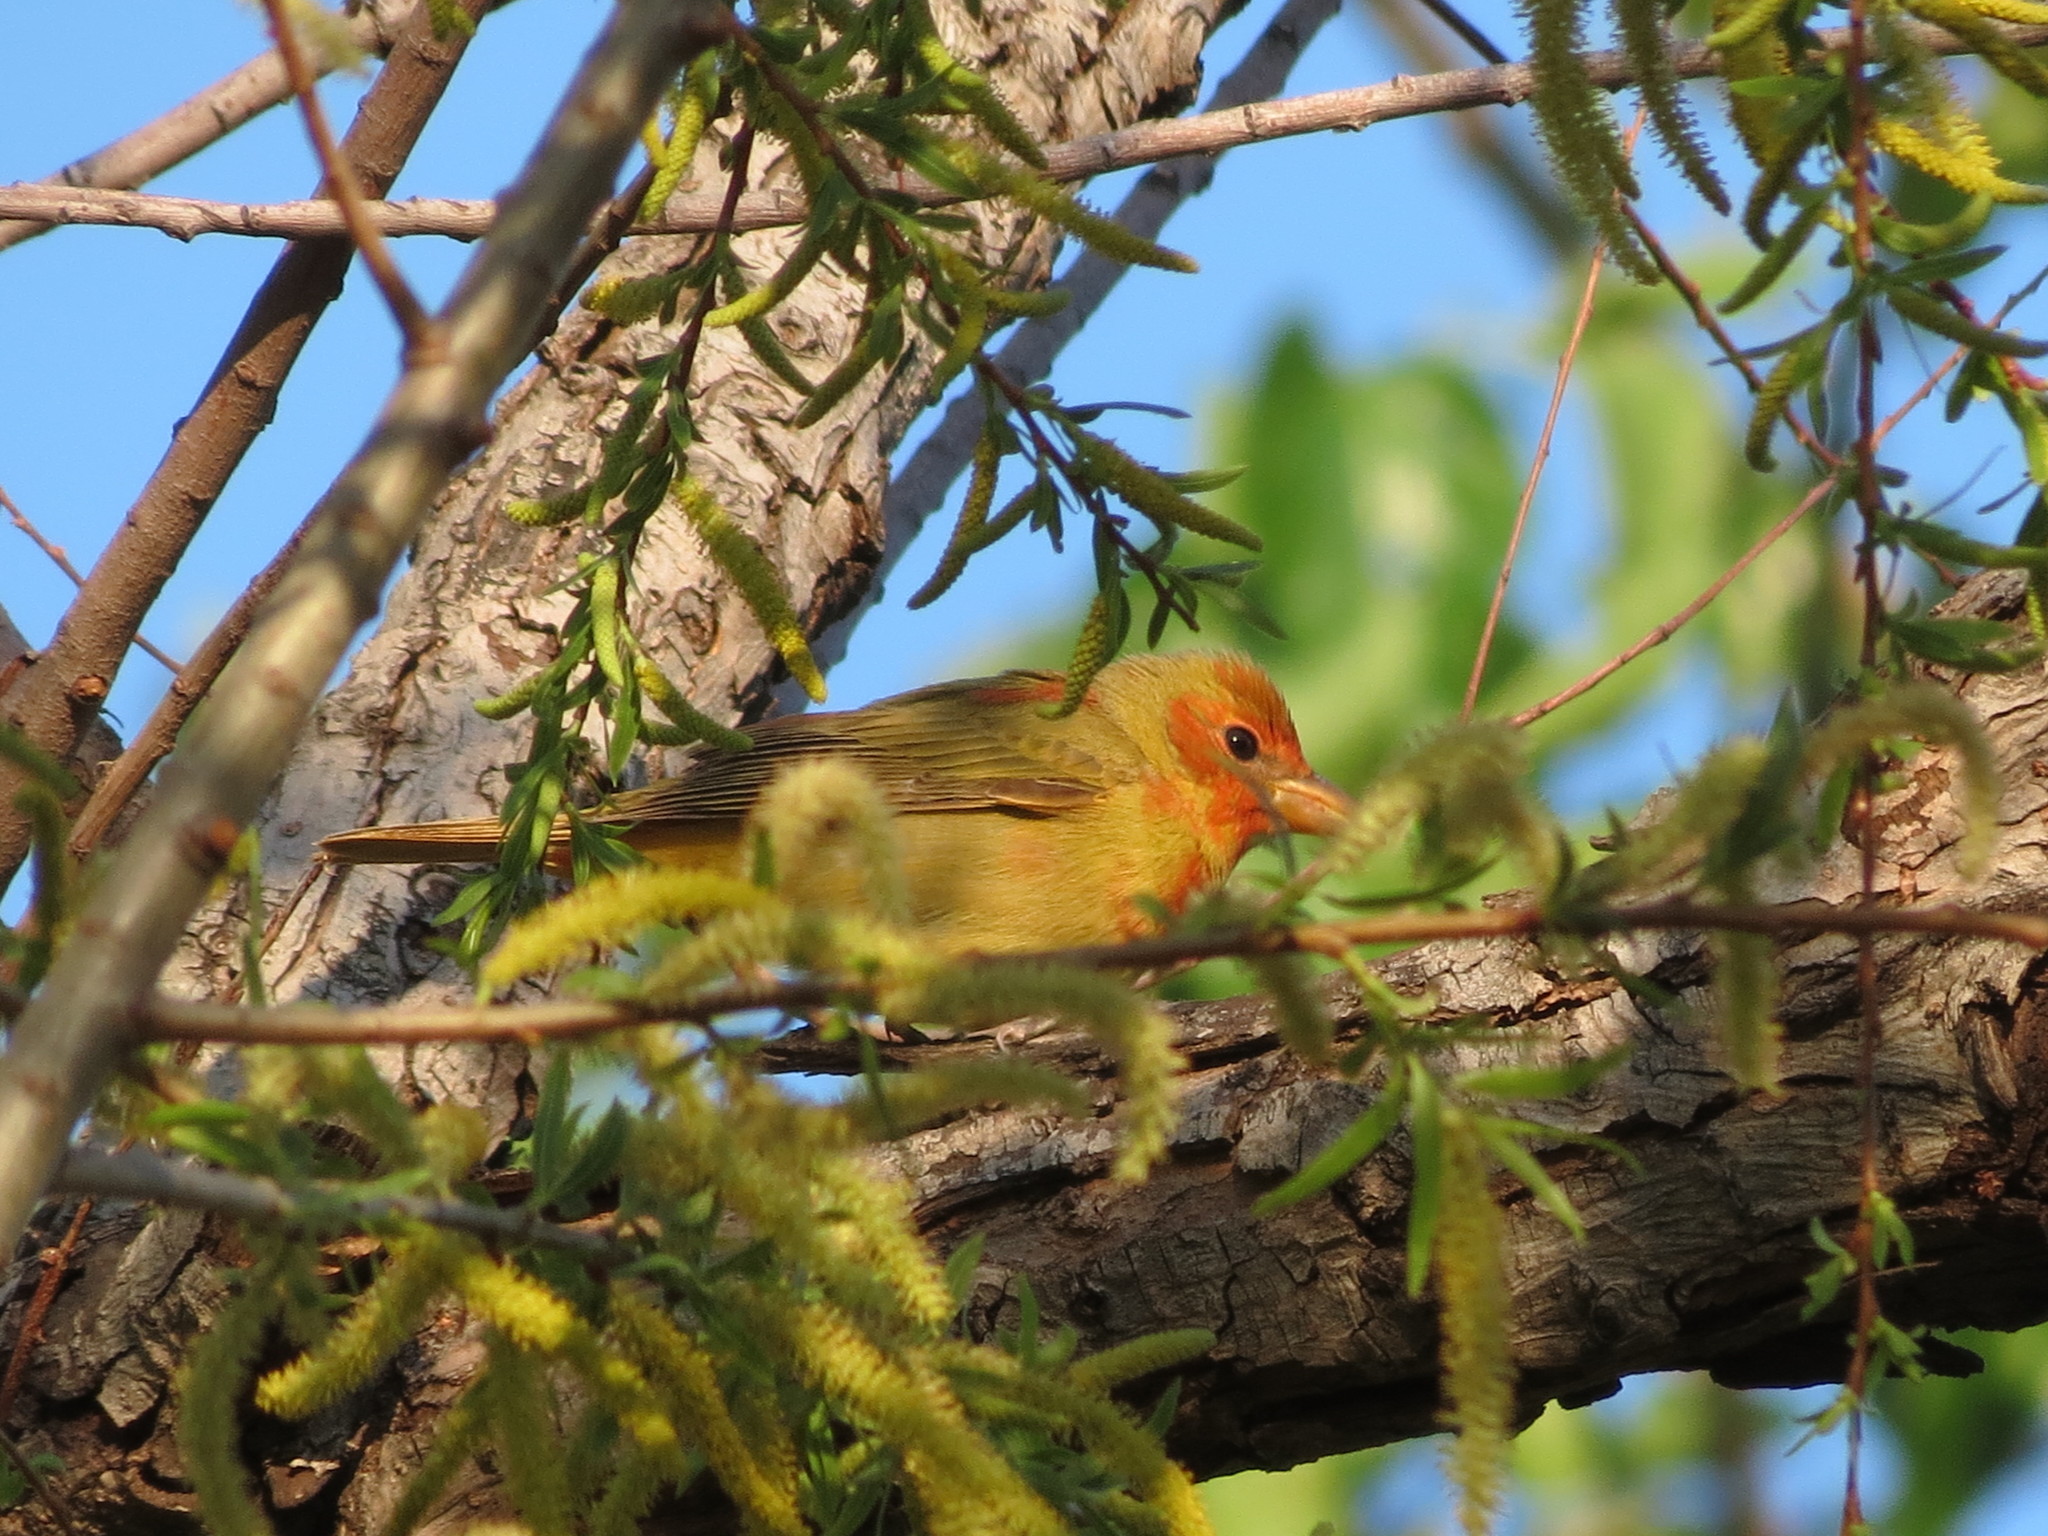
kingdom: Animalia
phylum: Chordata
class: Aves
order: Passeriformes
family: Cardinalidae
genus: Piranga
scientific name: Piranga rubra
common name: Summer tanager
